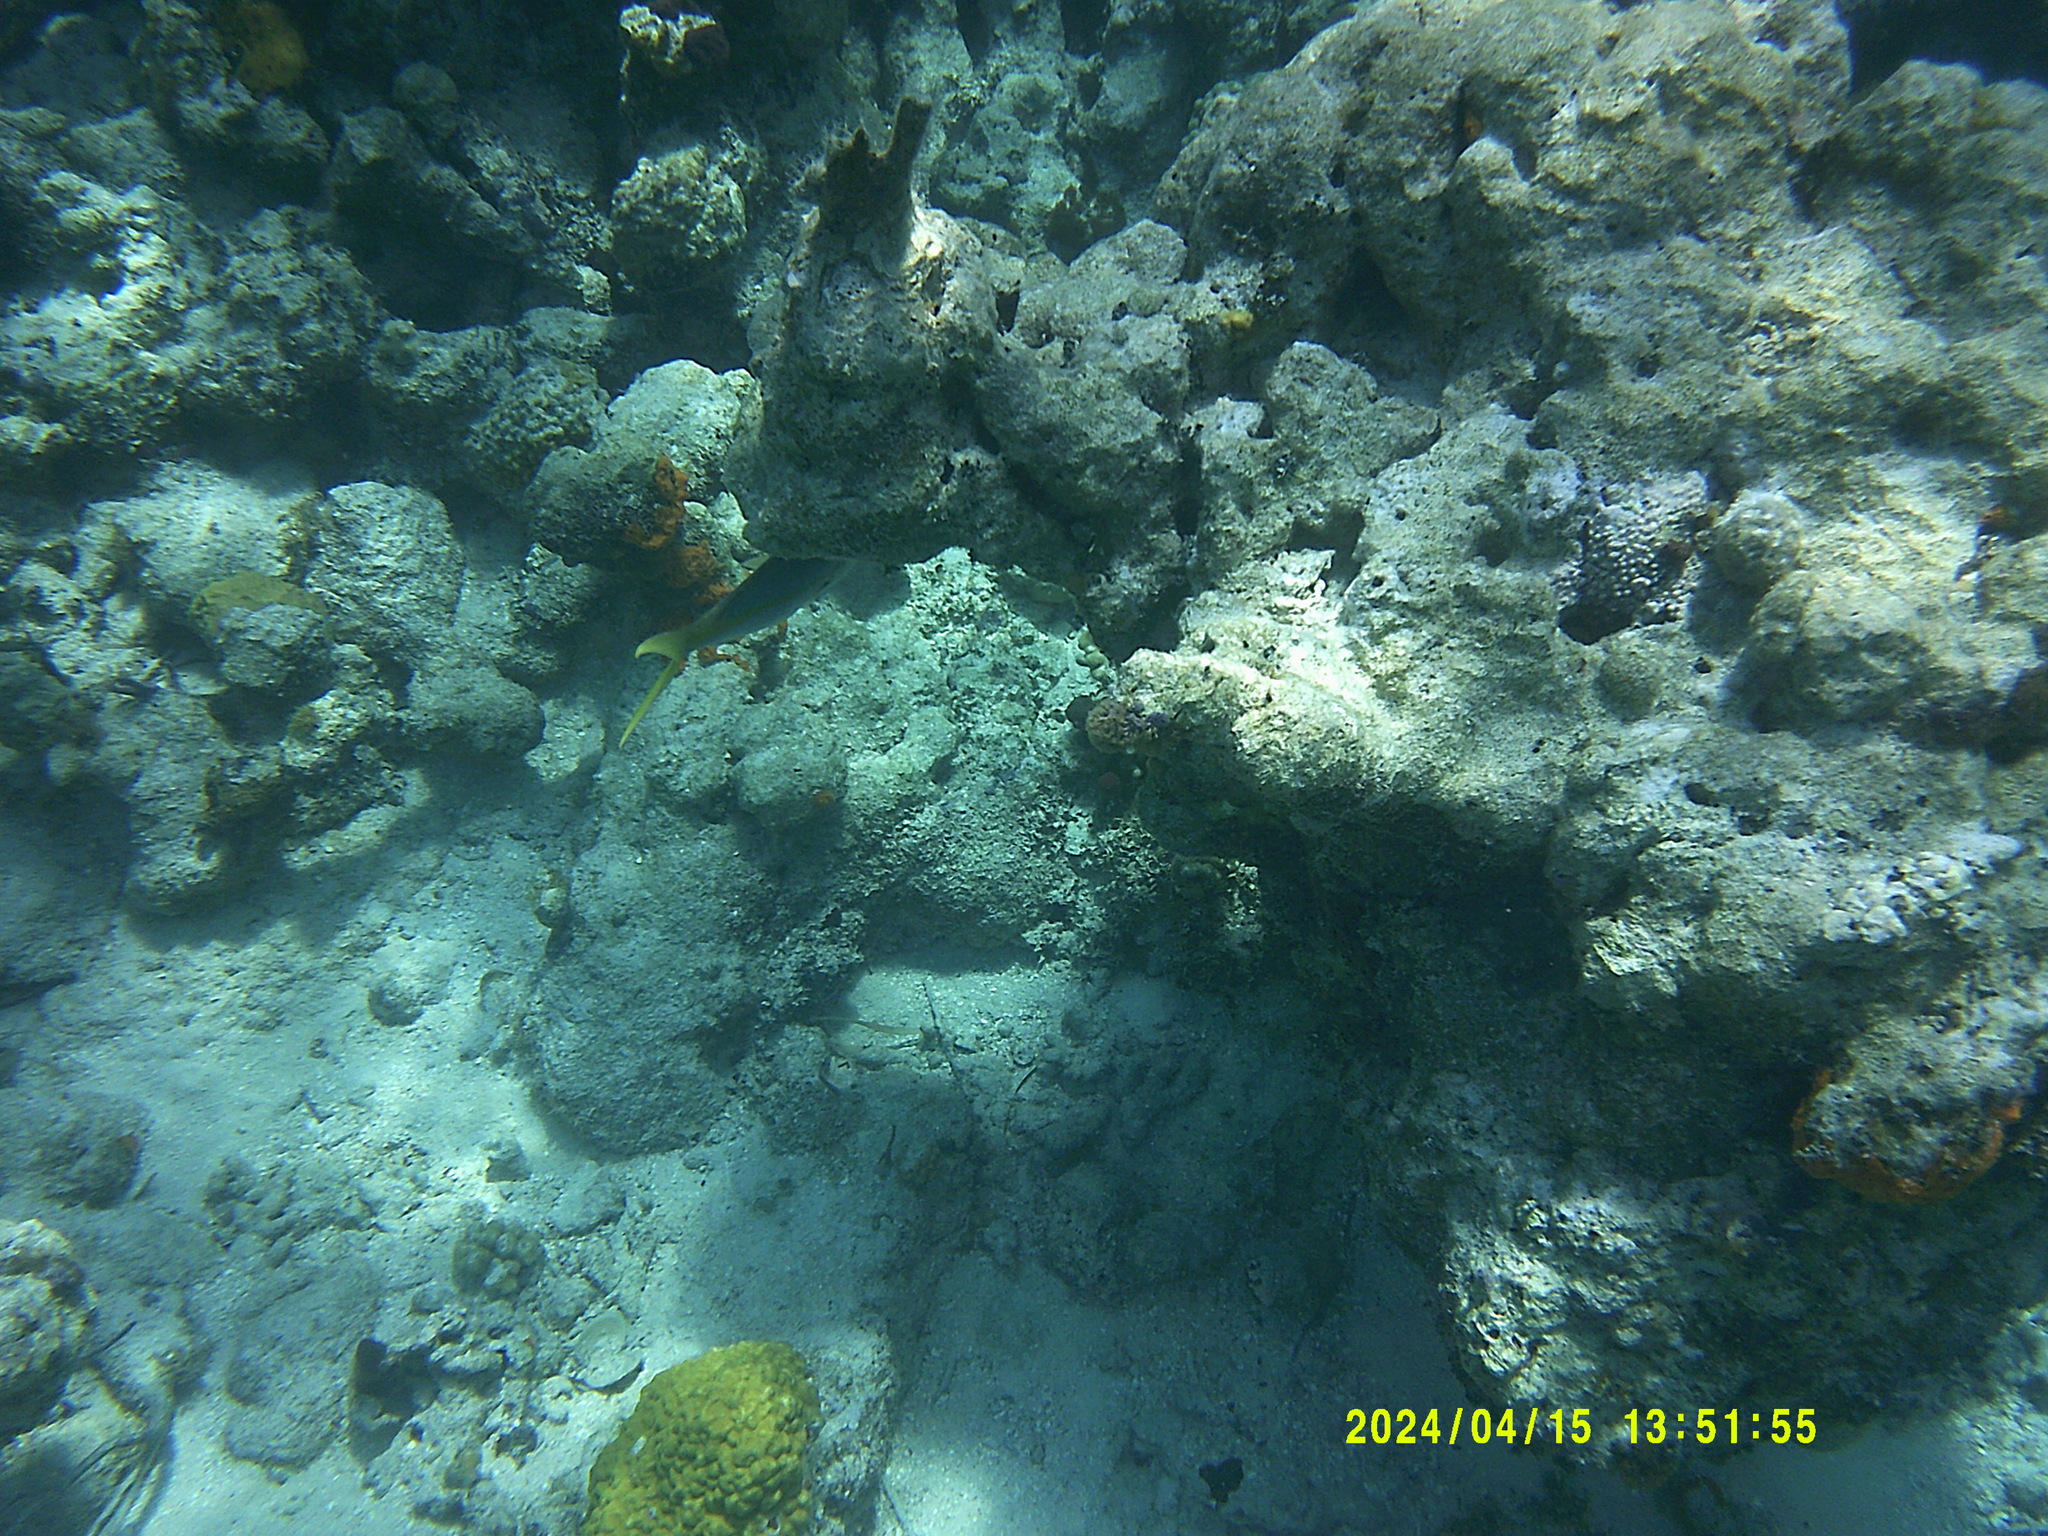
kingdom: Animalia
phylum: Chordata
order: Perciformes
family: Lutjanidae
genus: Ocyurus
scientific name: Ocyurus chrysurus
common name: Yellowtail snapper
